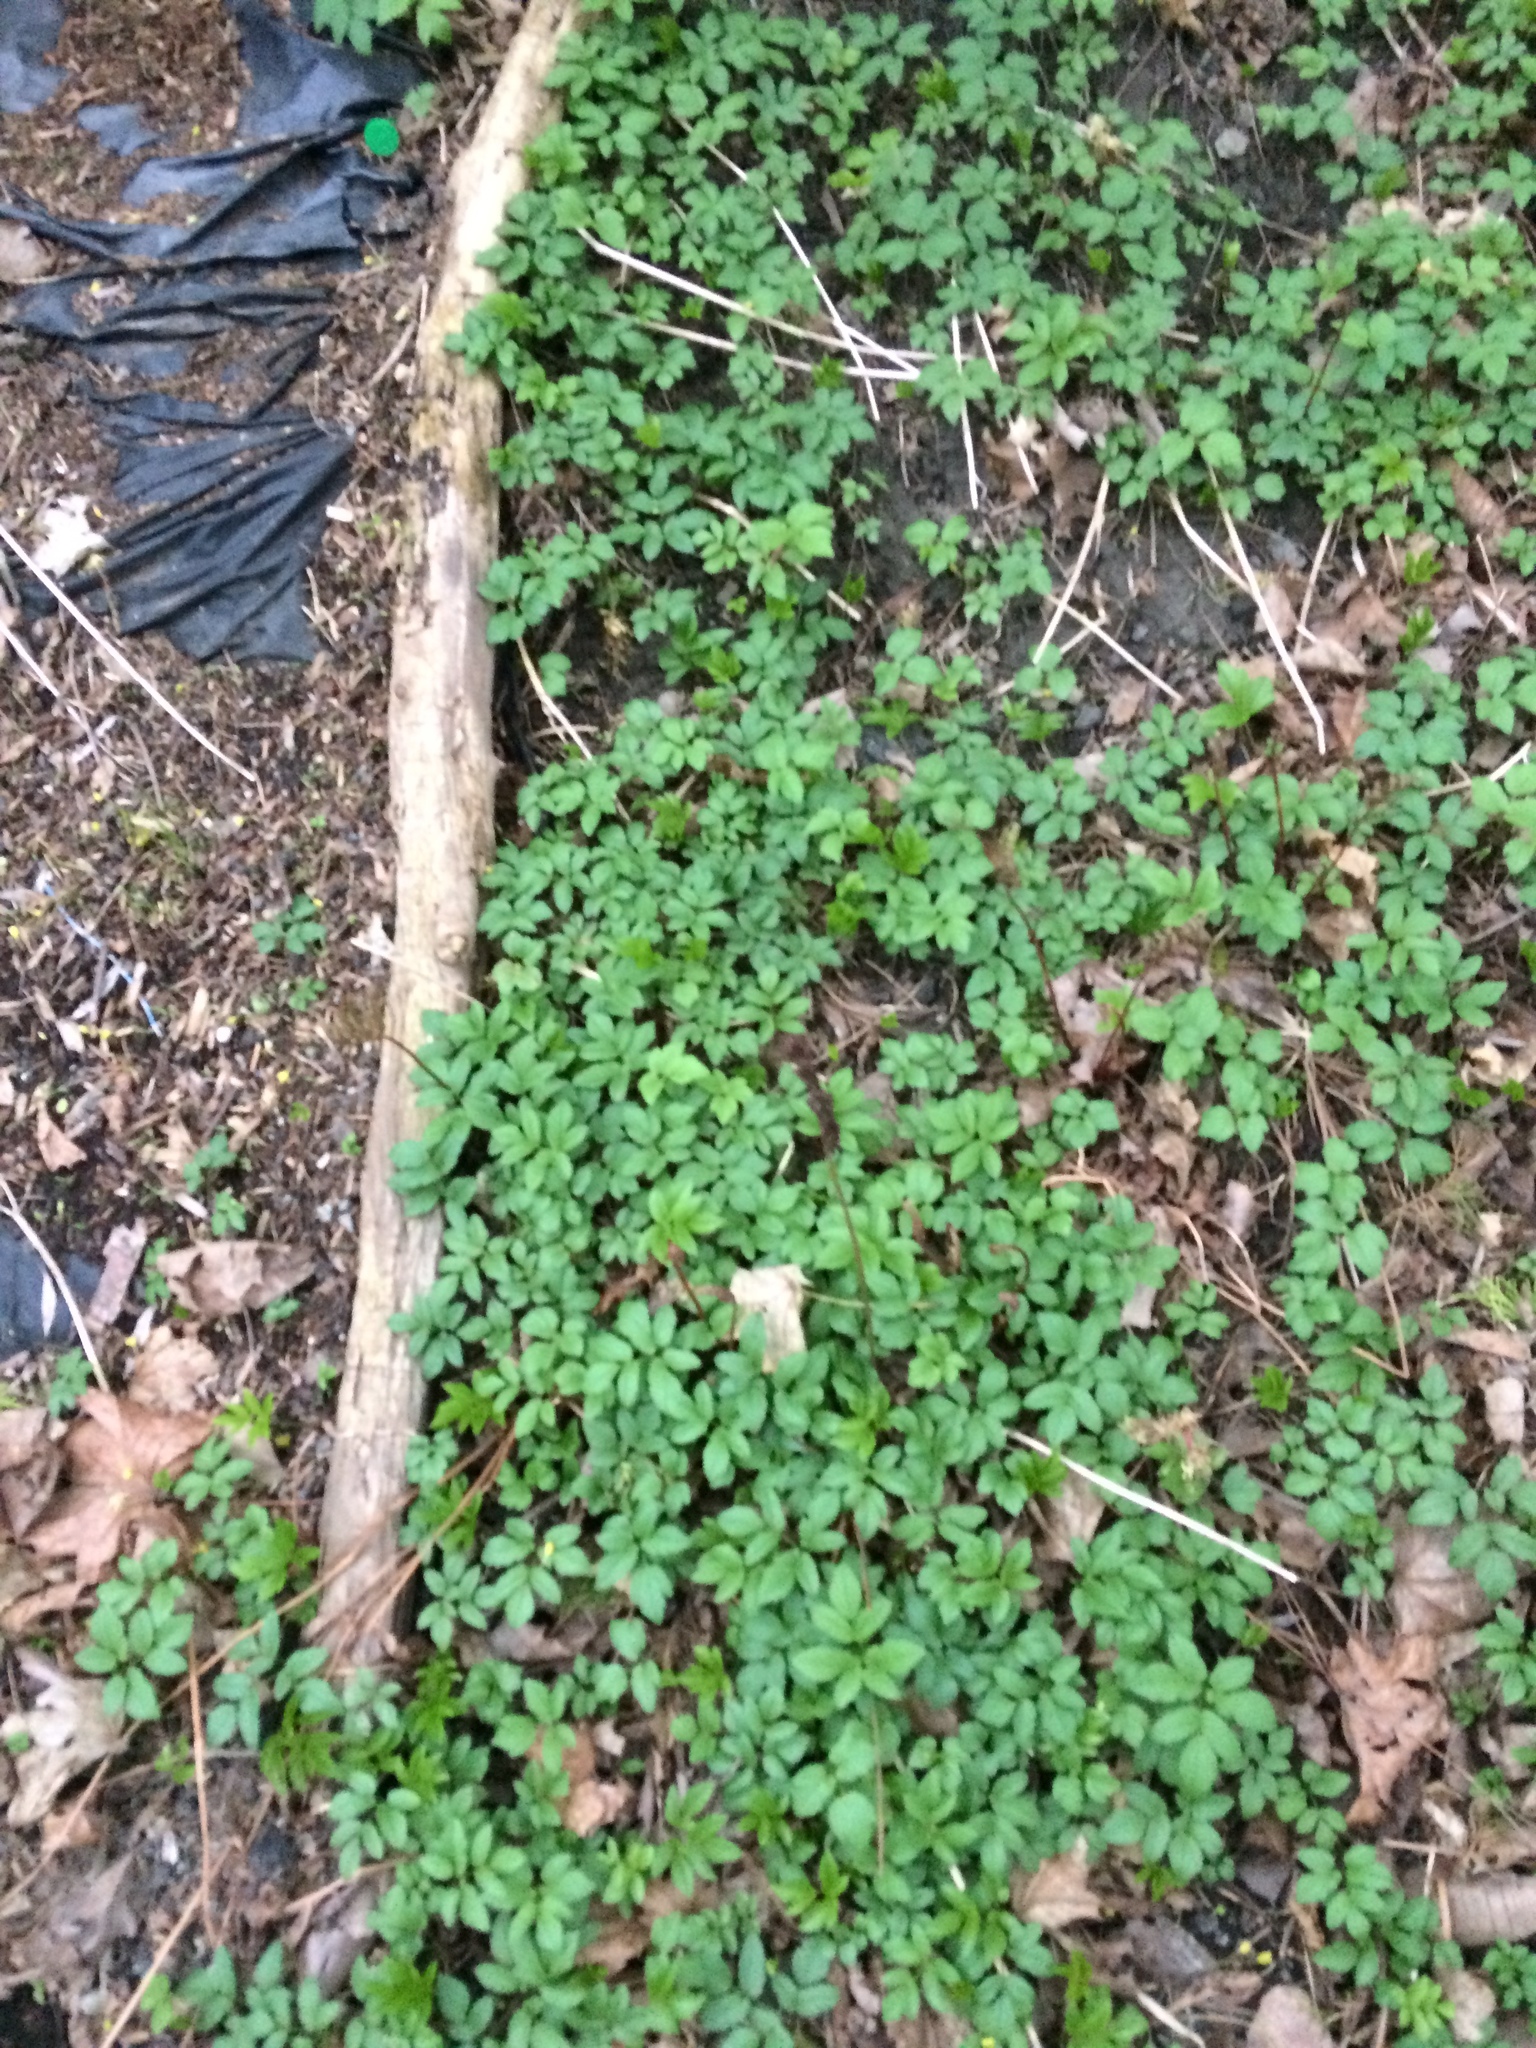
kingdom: Plantae
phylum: Tracheophyta
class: Magnoliopsida
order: Apiales
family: Apiaceae
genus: Aegopodium
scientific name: Aegopodium podagraria
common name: Ground-elder
